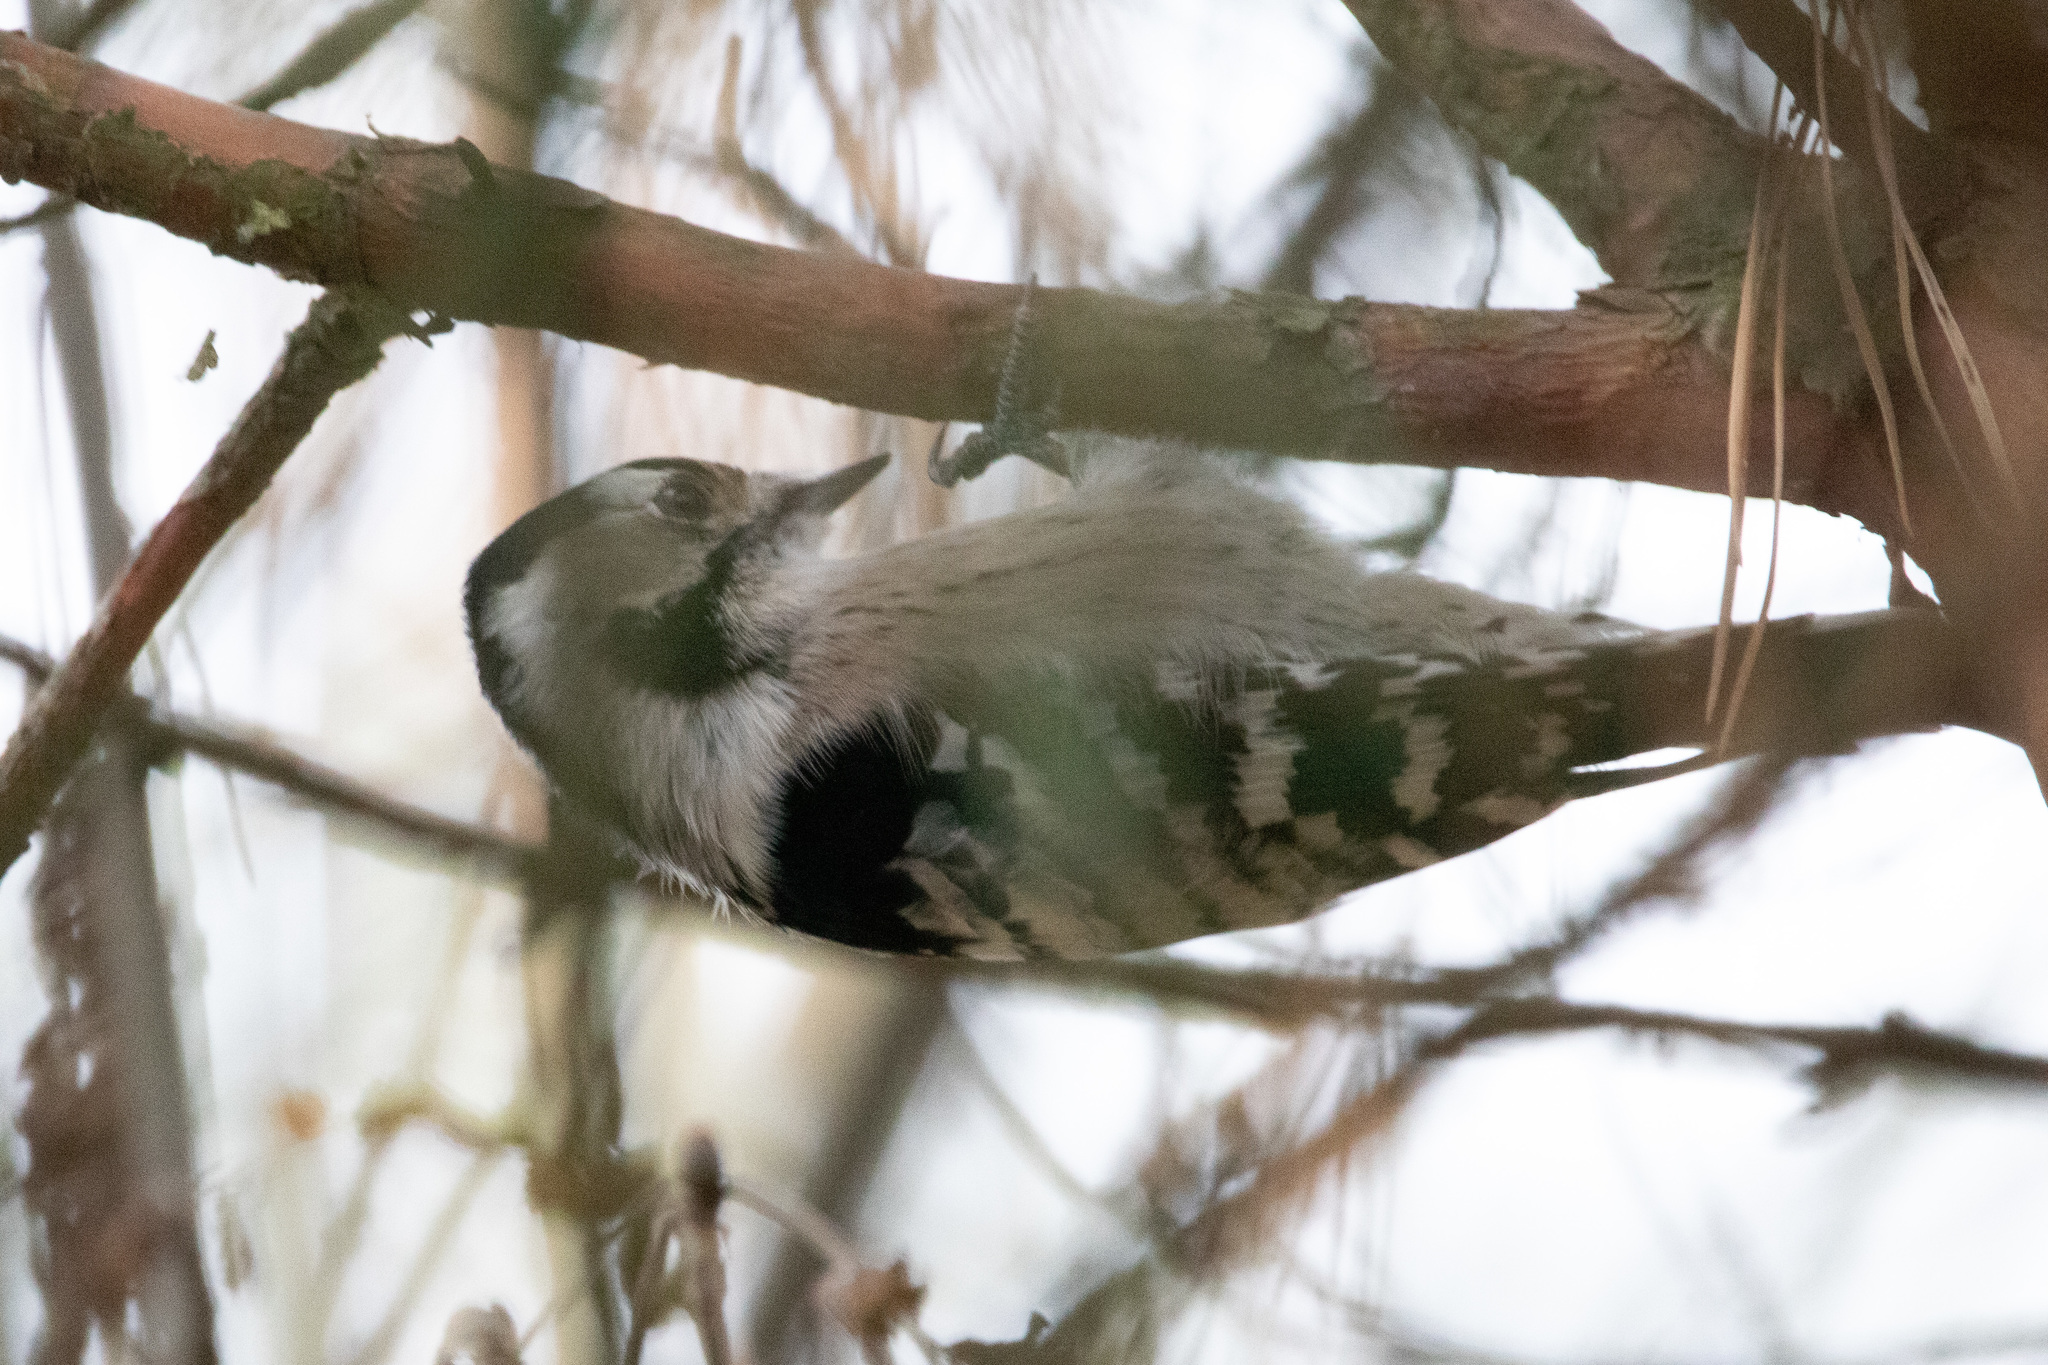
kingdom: Animalia
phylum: Chordata
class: Aves
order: Piciformes
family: Picidae
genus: Dryobates
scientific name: Dryobates minor
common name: Lesser spotted woodpecker
